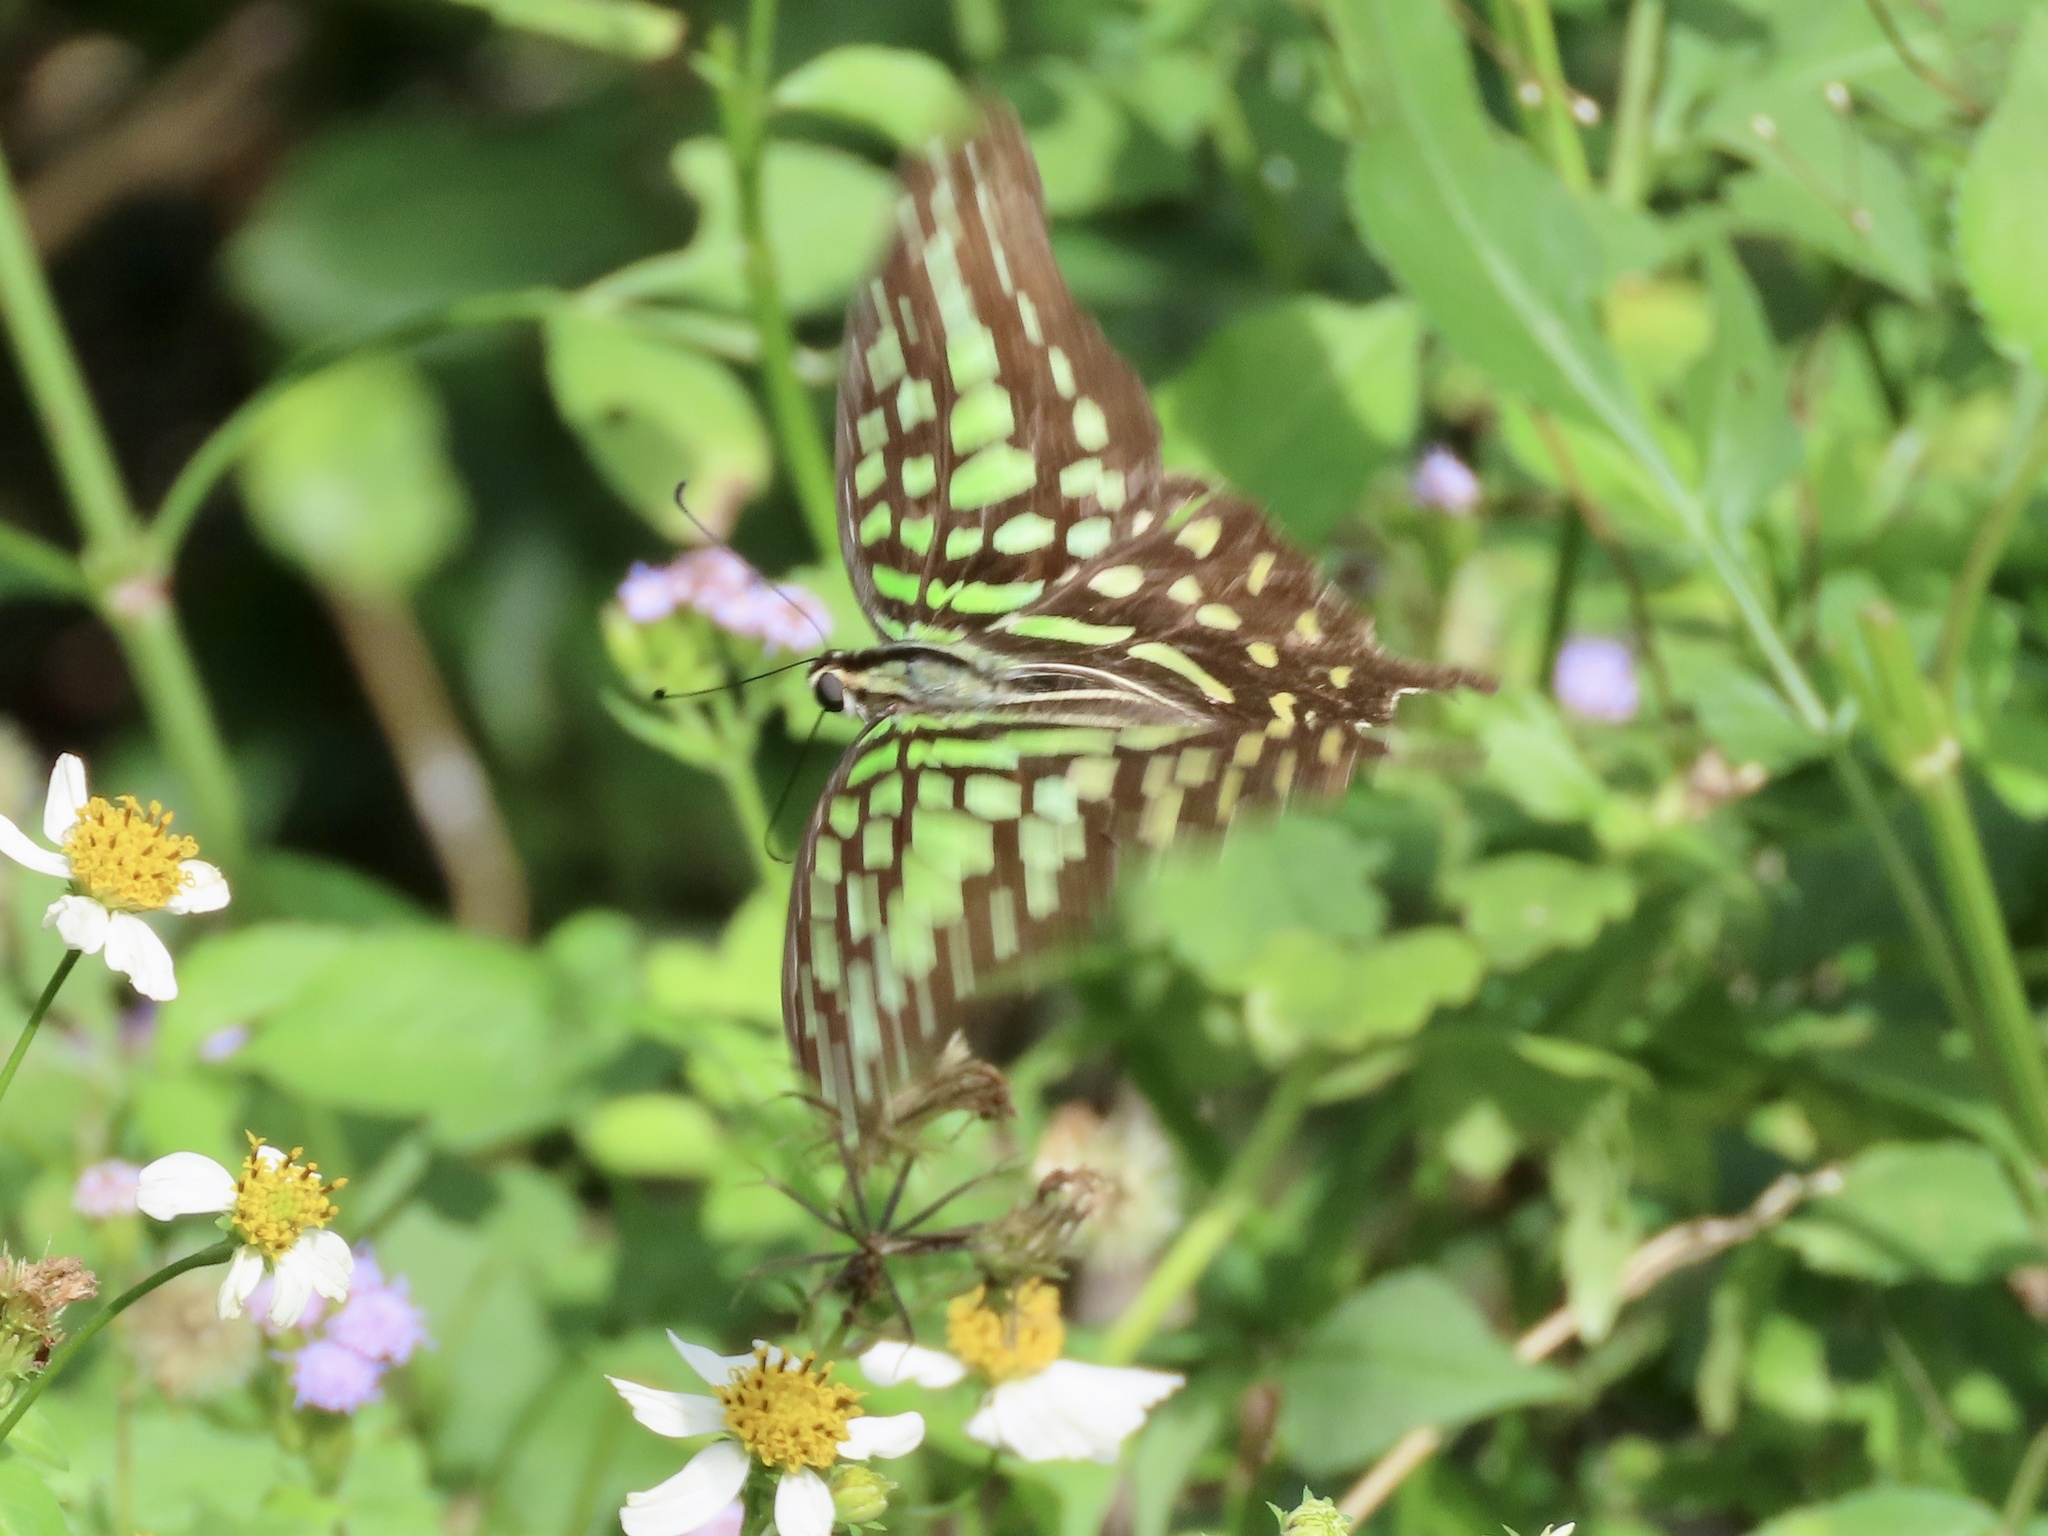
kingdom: Animalia
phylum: Arthropoda
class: Insecta
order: Lepidoptera
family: Papilionidae
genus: Graphium
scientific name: Graphium agamemnon
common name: Tailed jay
